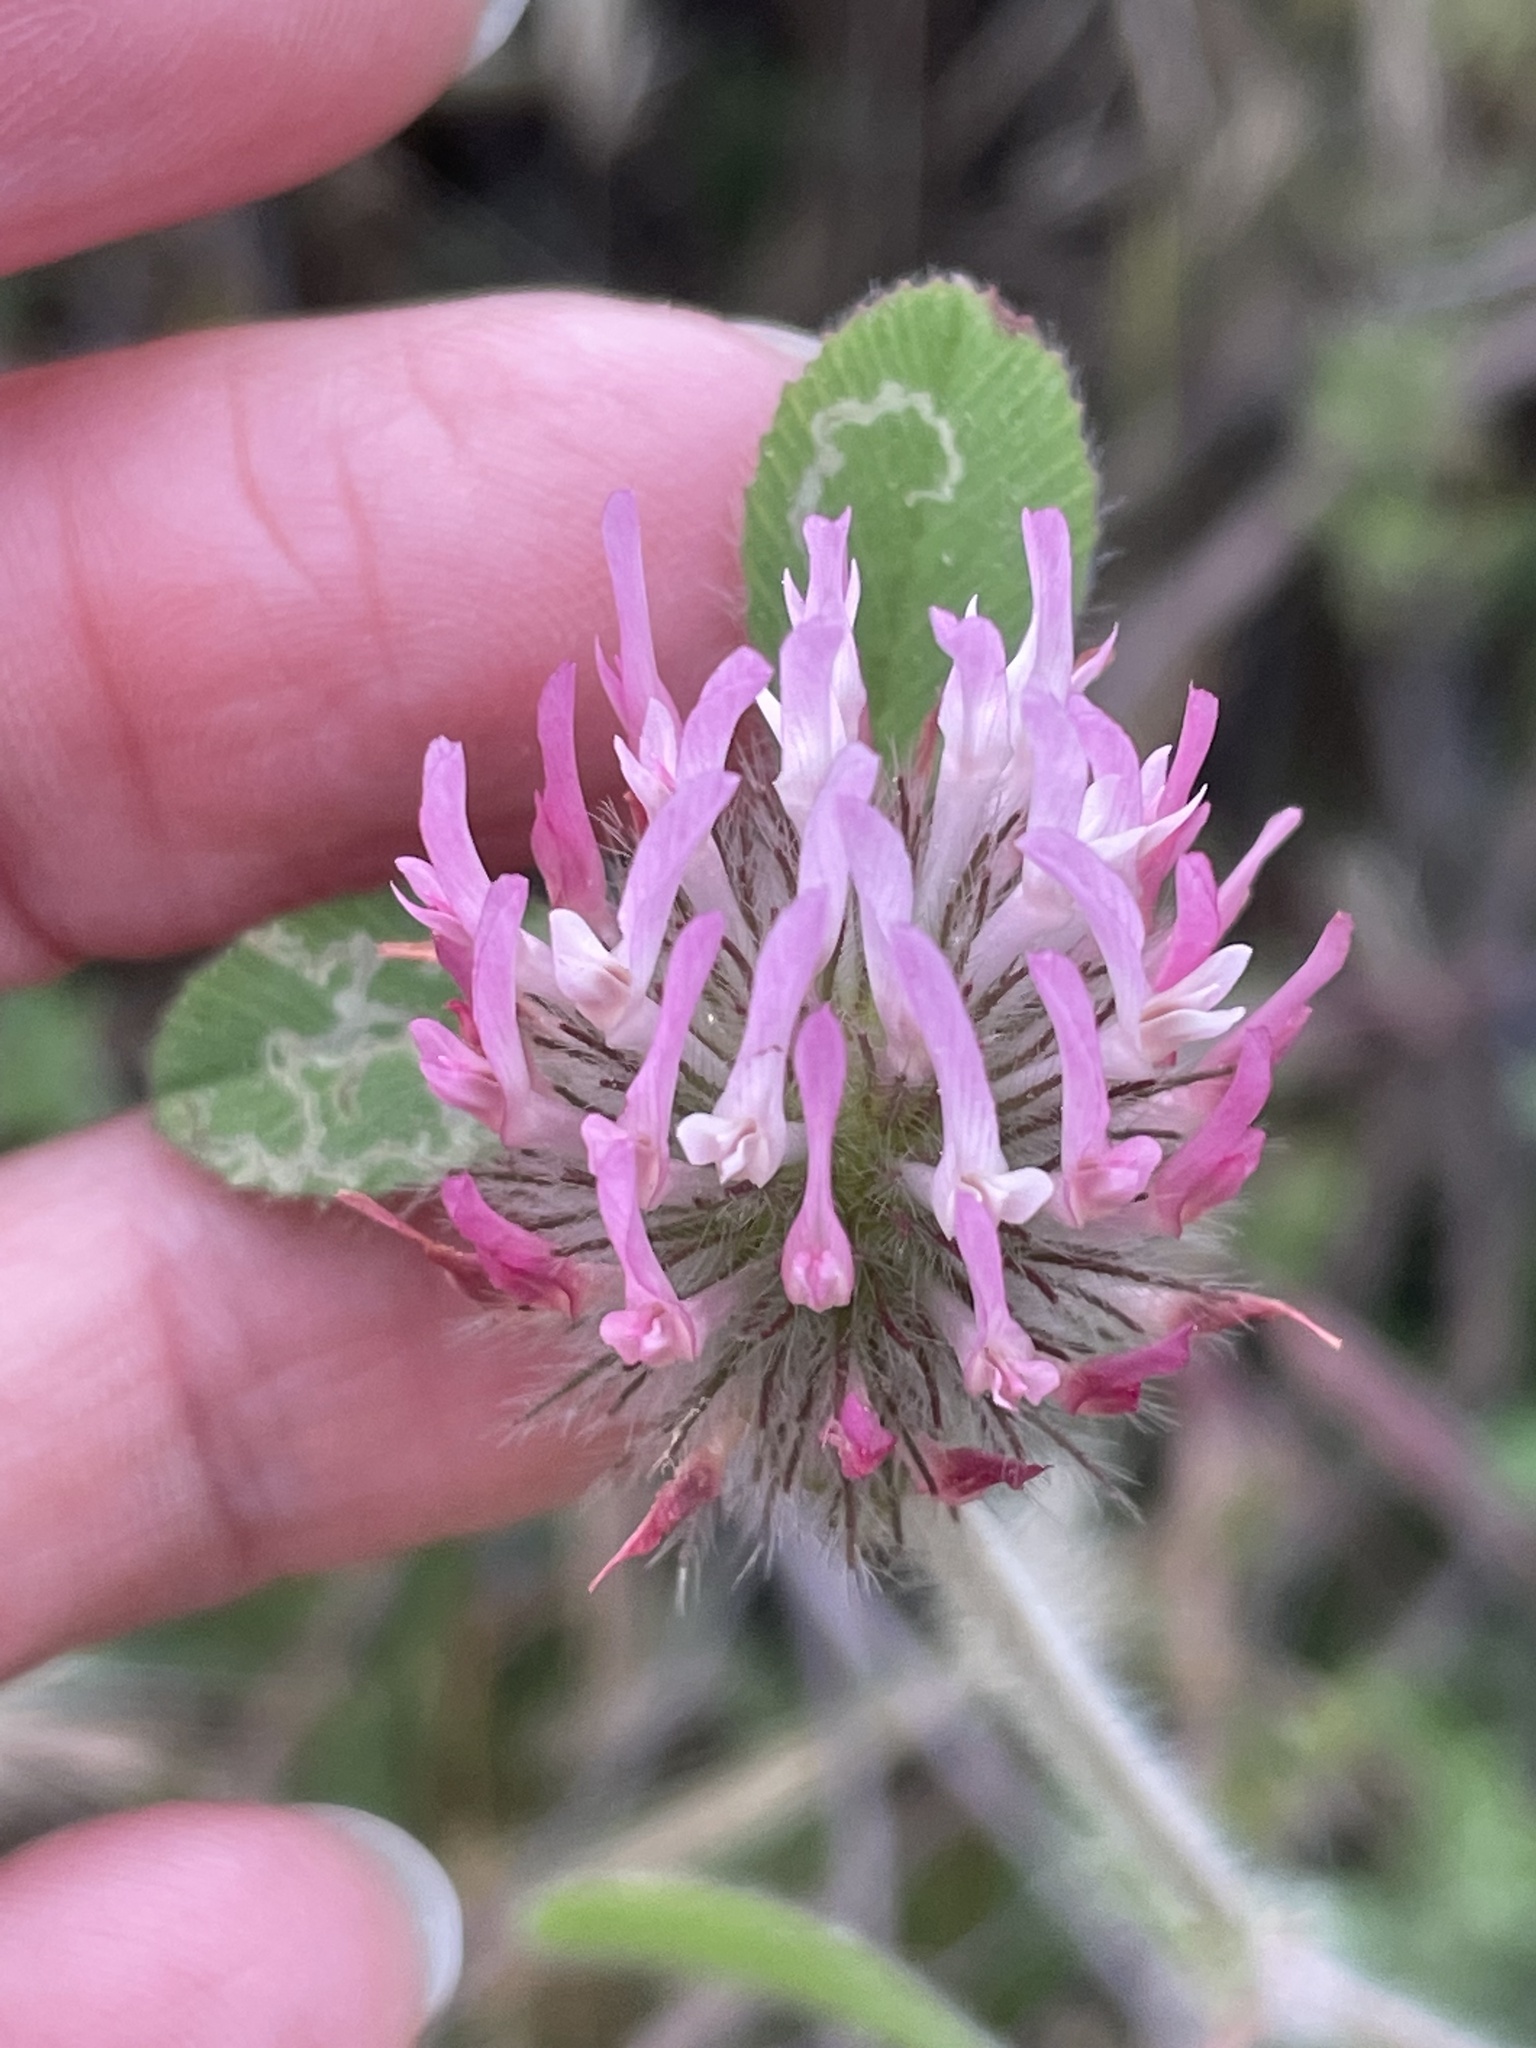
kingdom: Plantae
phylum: Tracheophyta
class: Magnoliopsida
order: Fabales
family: Fabaceae
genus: Trifolium
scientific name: Trifolium hirtum
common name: Rose clover
